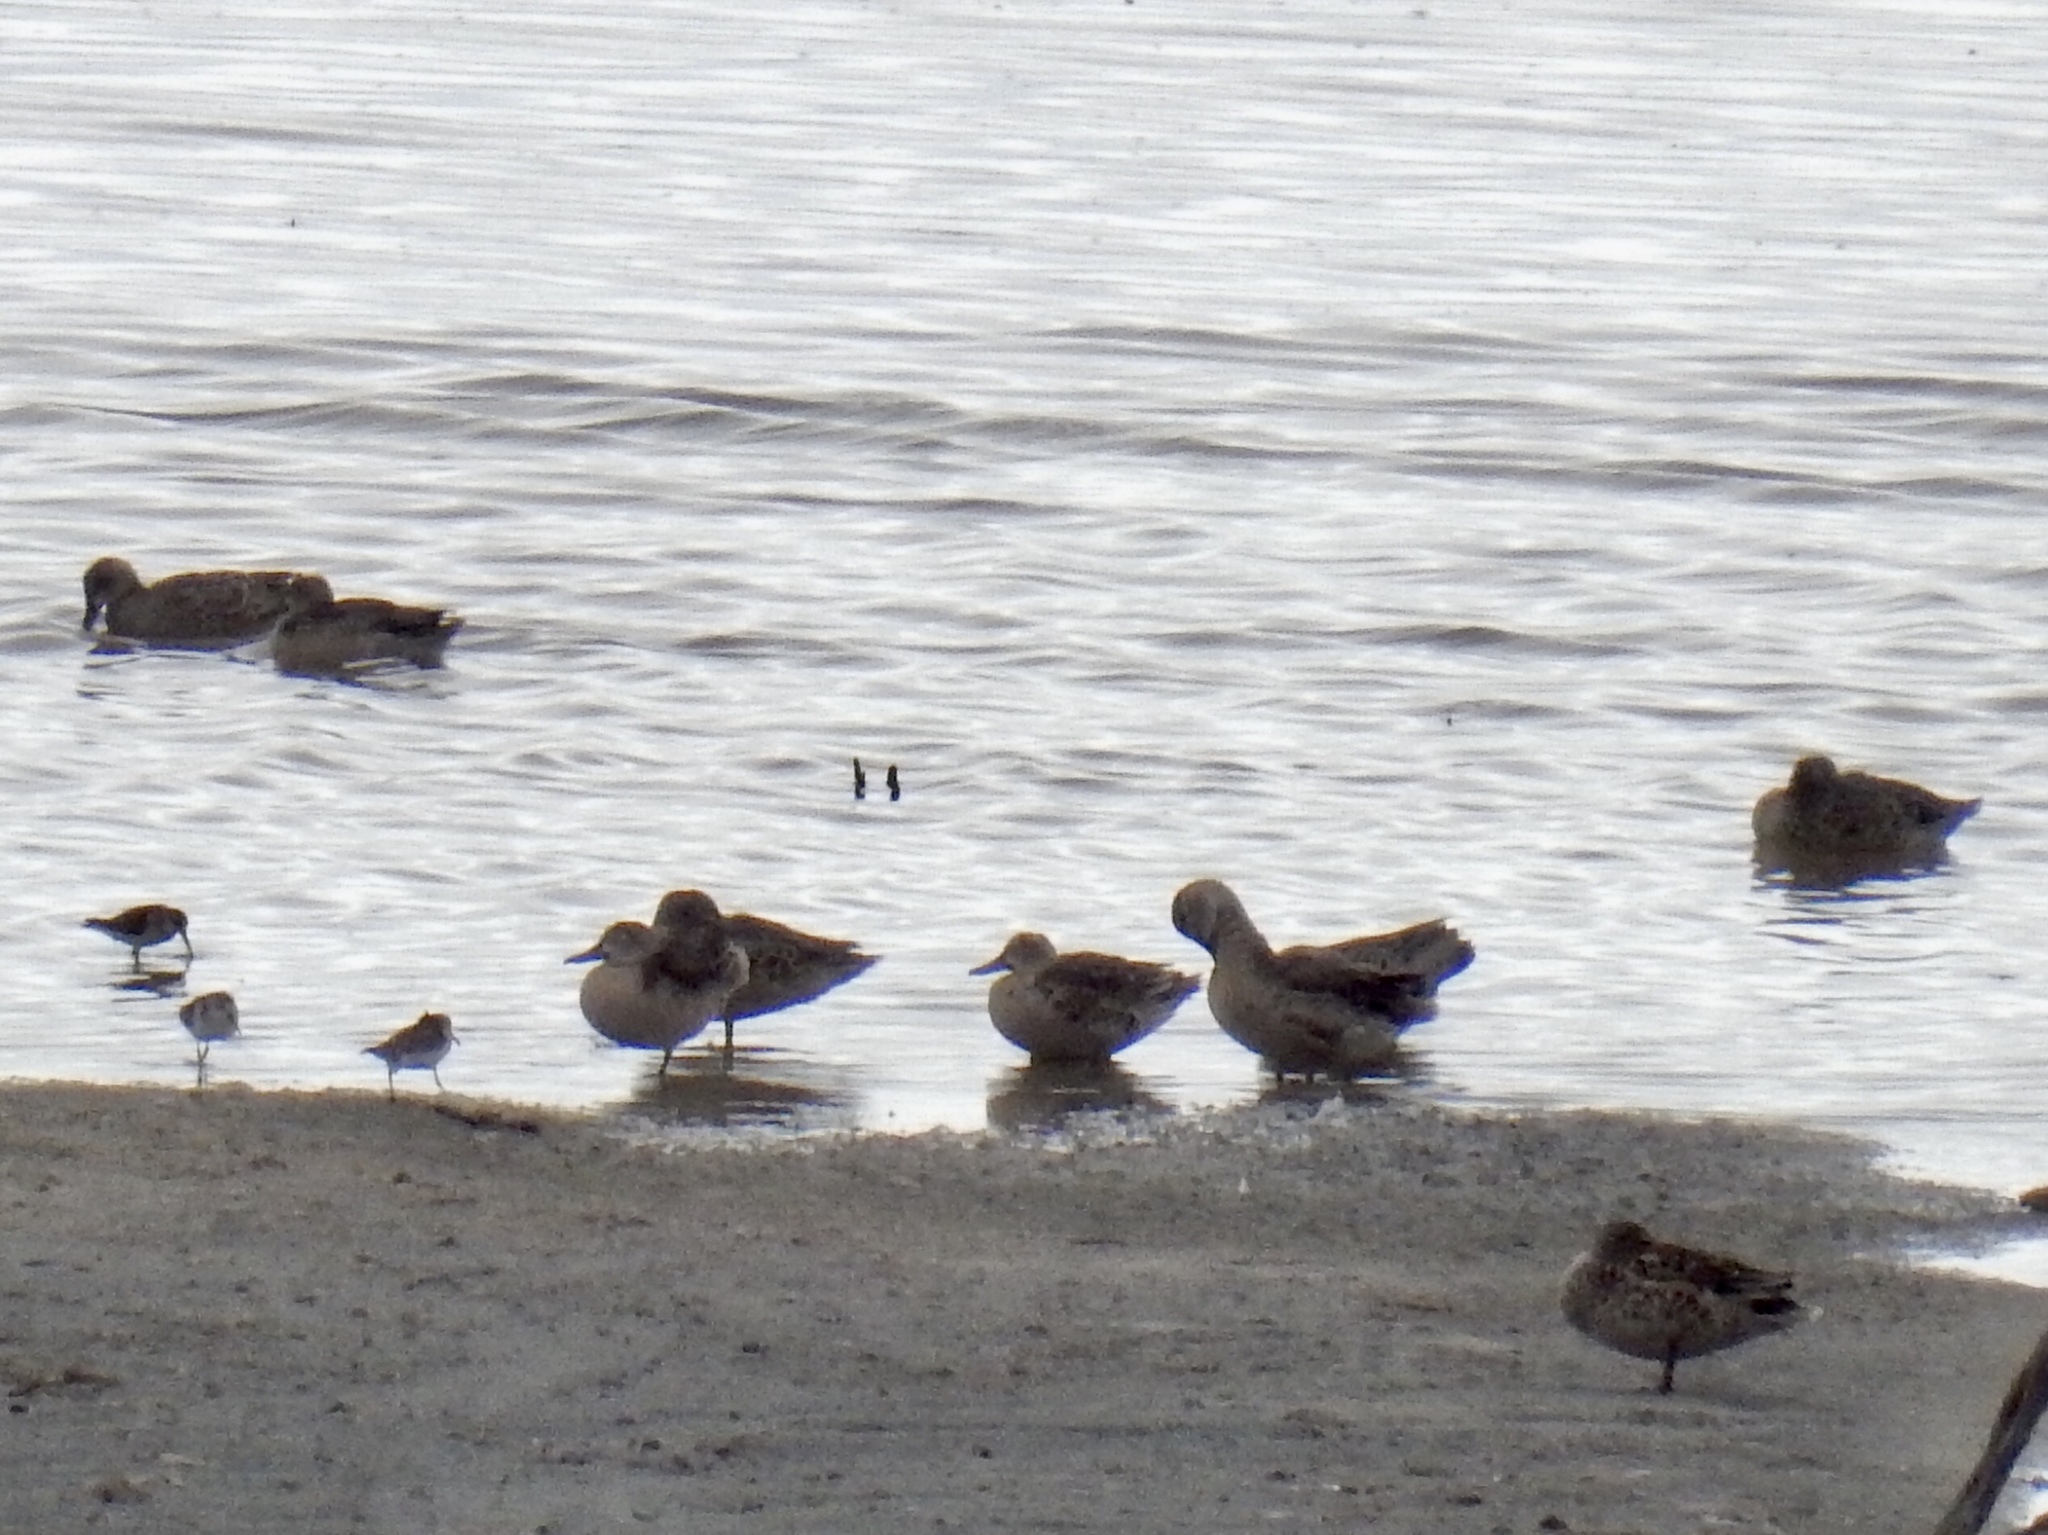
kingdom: Animalia
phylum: Chordata
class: Aves
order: Anseriformes
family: Anatidae
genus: Spatula
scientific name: Spatula cyanoptera
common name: Cinnamon teal
